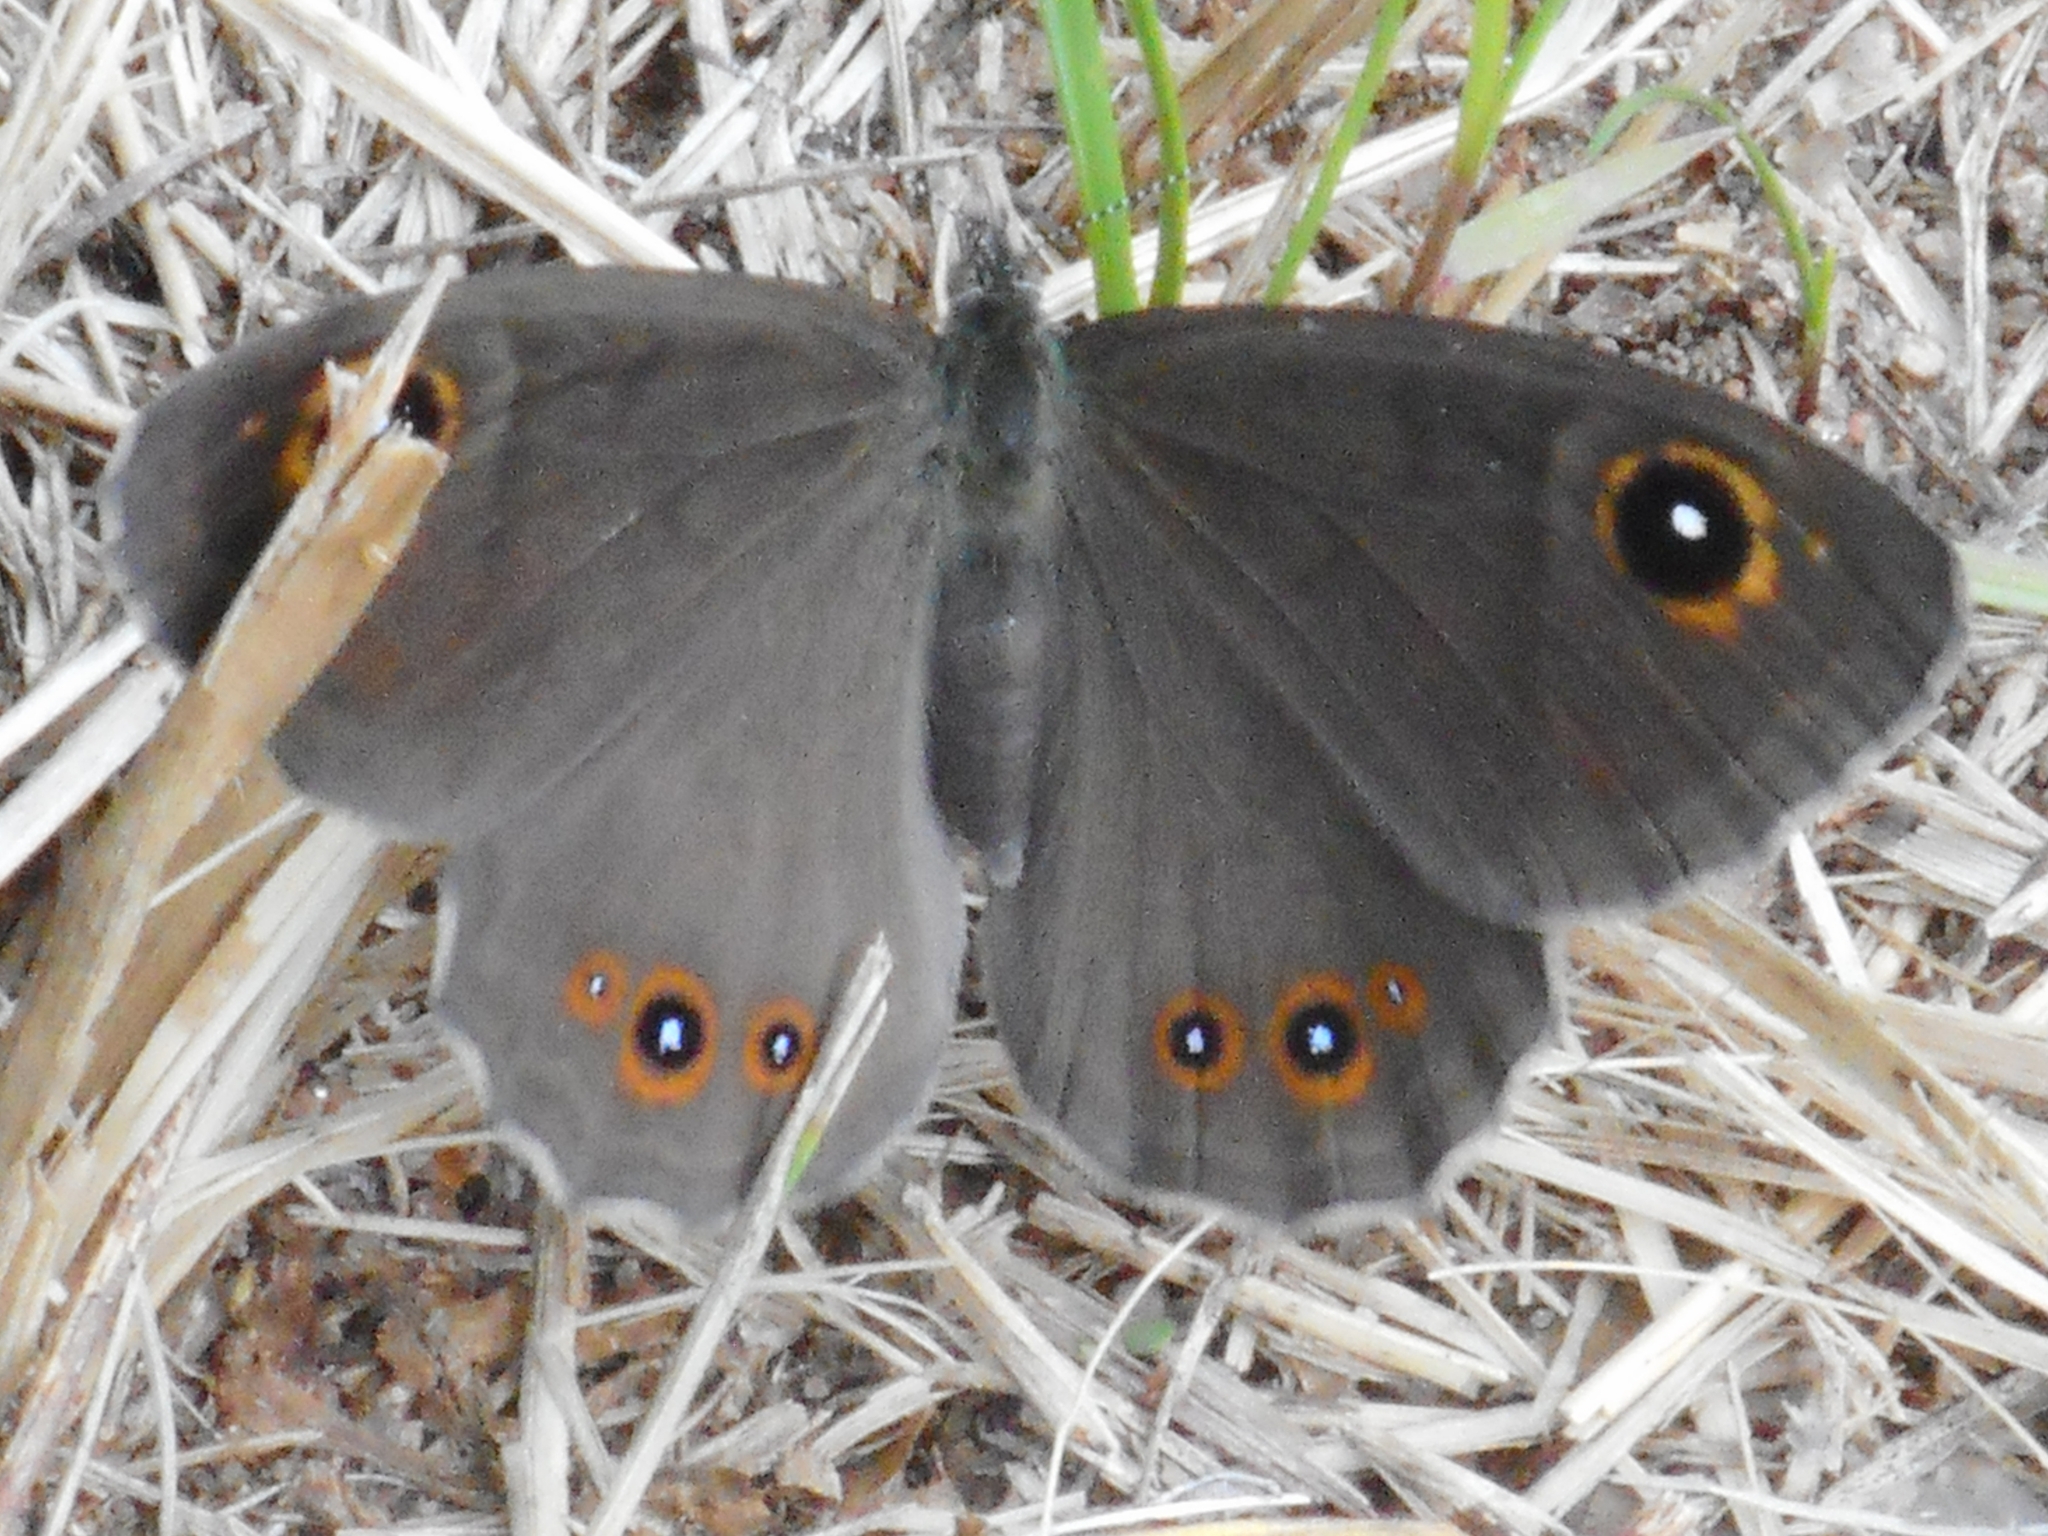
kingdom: Animalia
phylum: Arthropoda
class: Insecta
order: Lepidoptera
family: Nymphalidae
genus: Pararge
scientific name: Pararge Lasiommata maera
